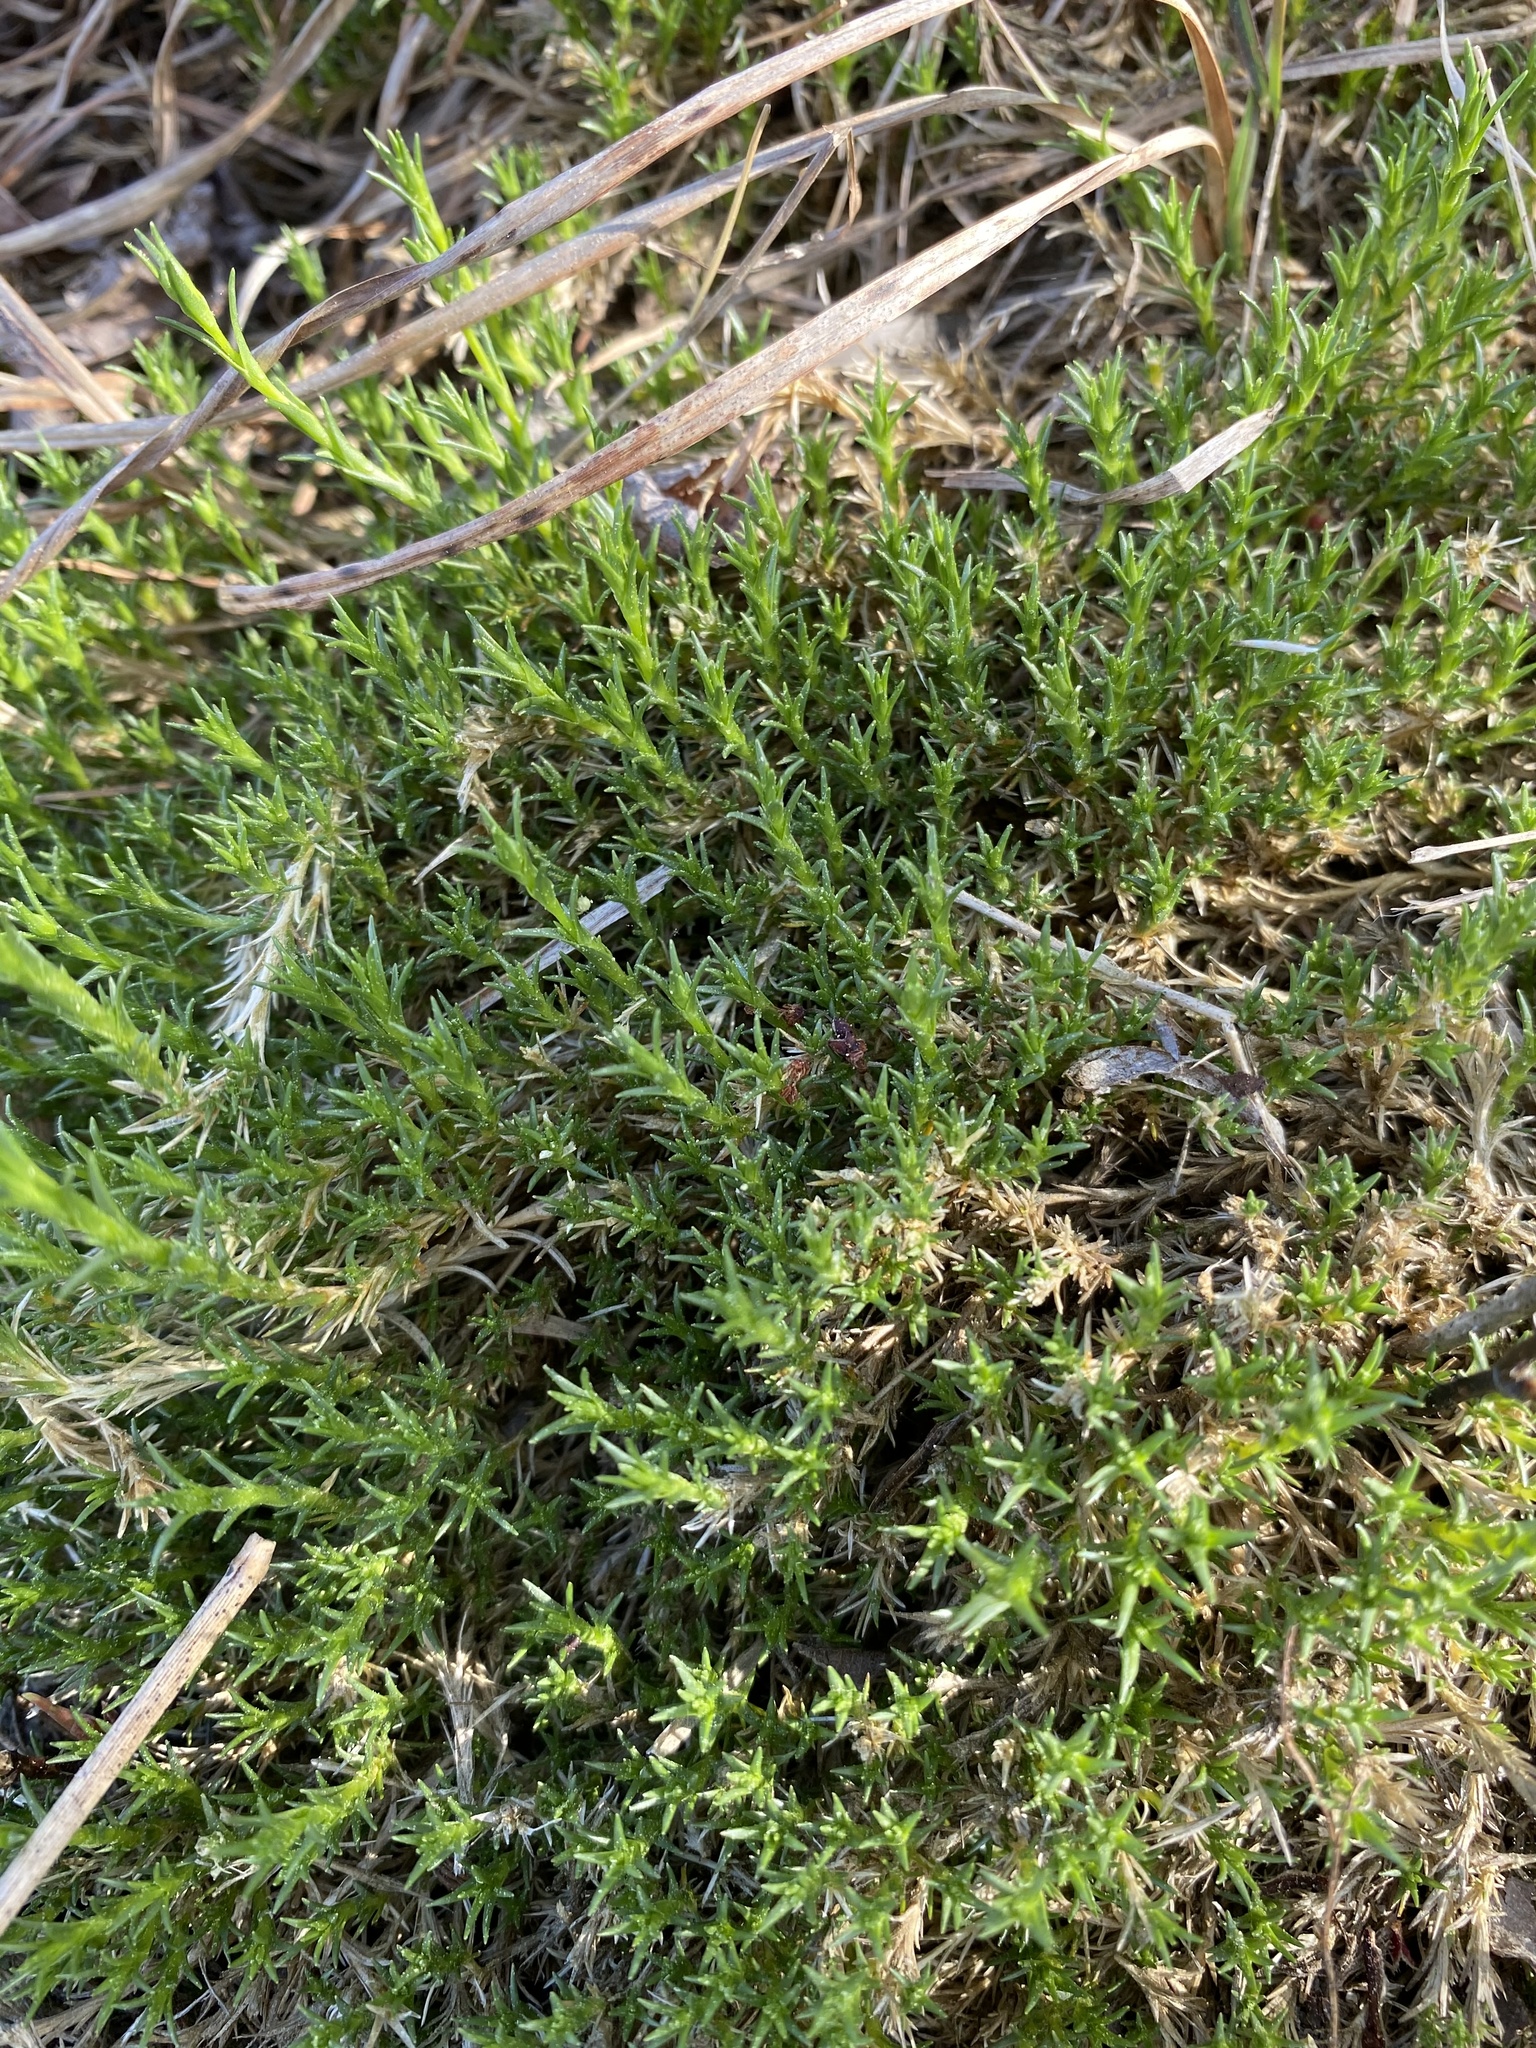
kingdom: Plantae
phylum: Tracheophyta
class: Magnoliopsida
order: Caryophyllales
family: Caryophyllaceae
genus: Geocarpon
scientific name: Geocarpon carolinianum
